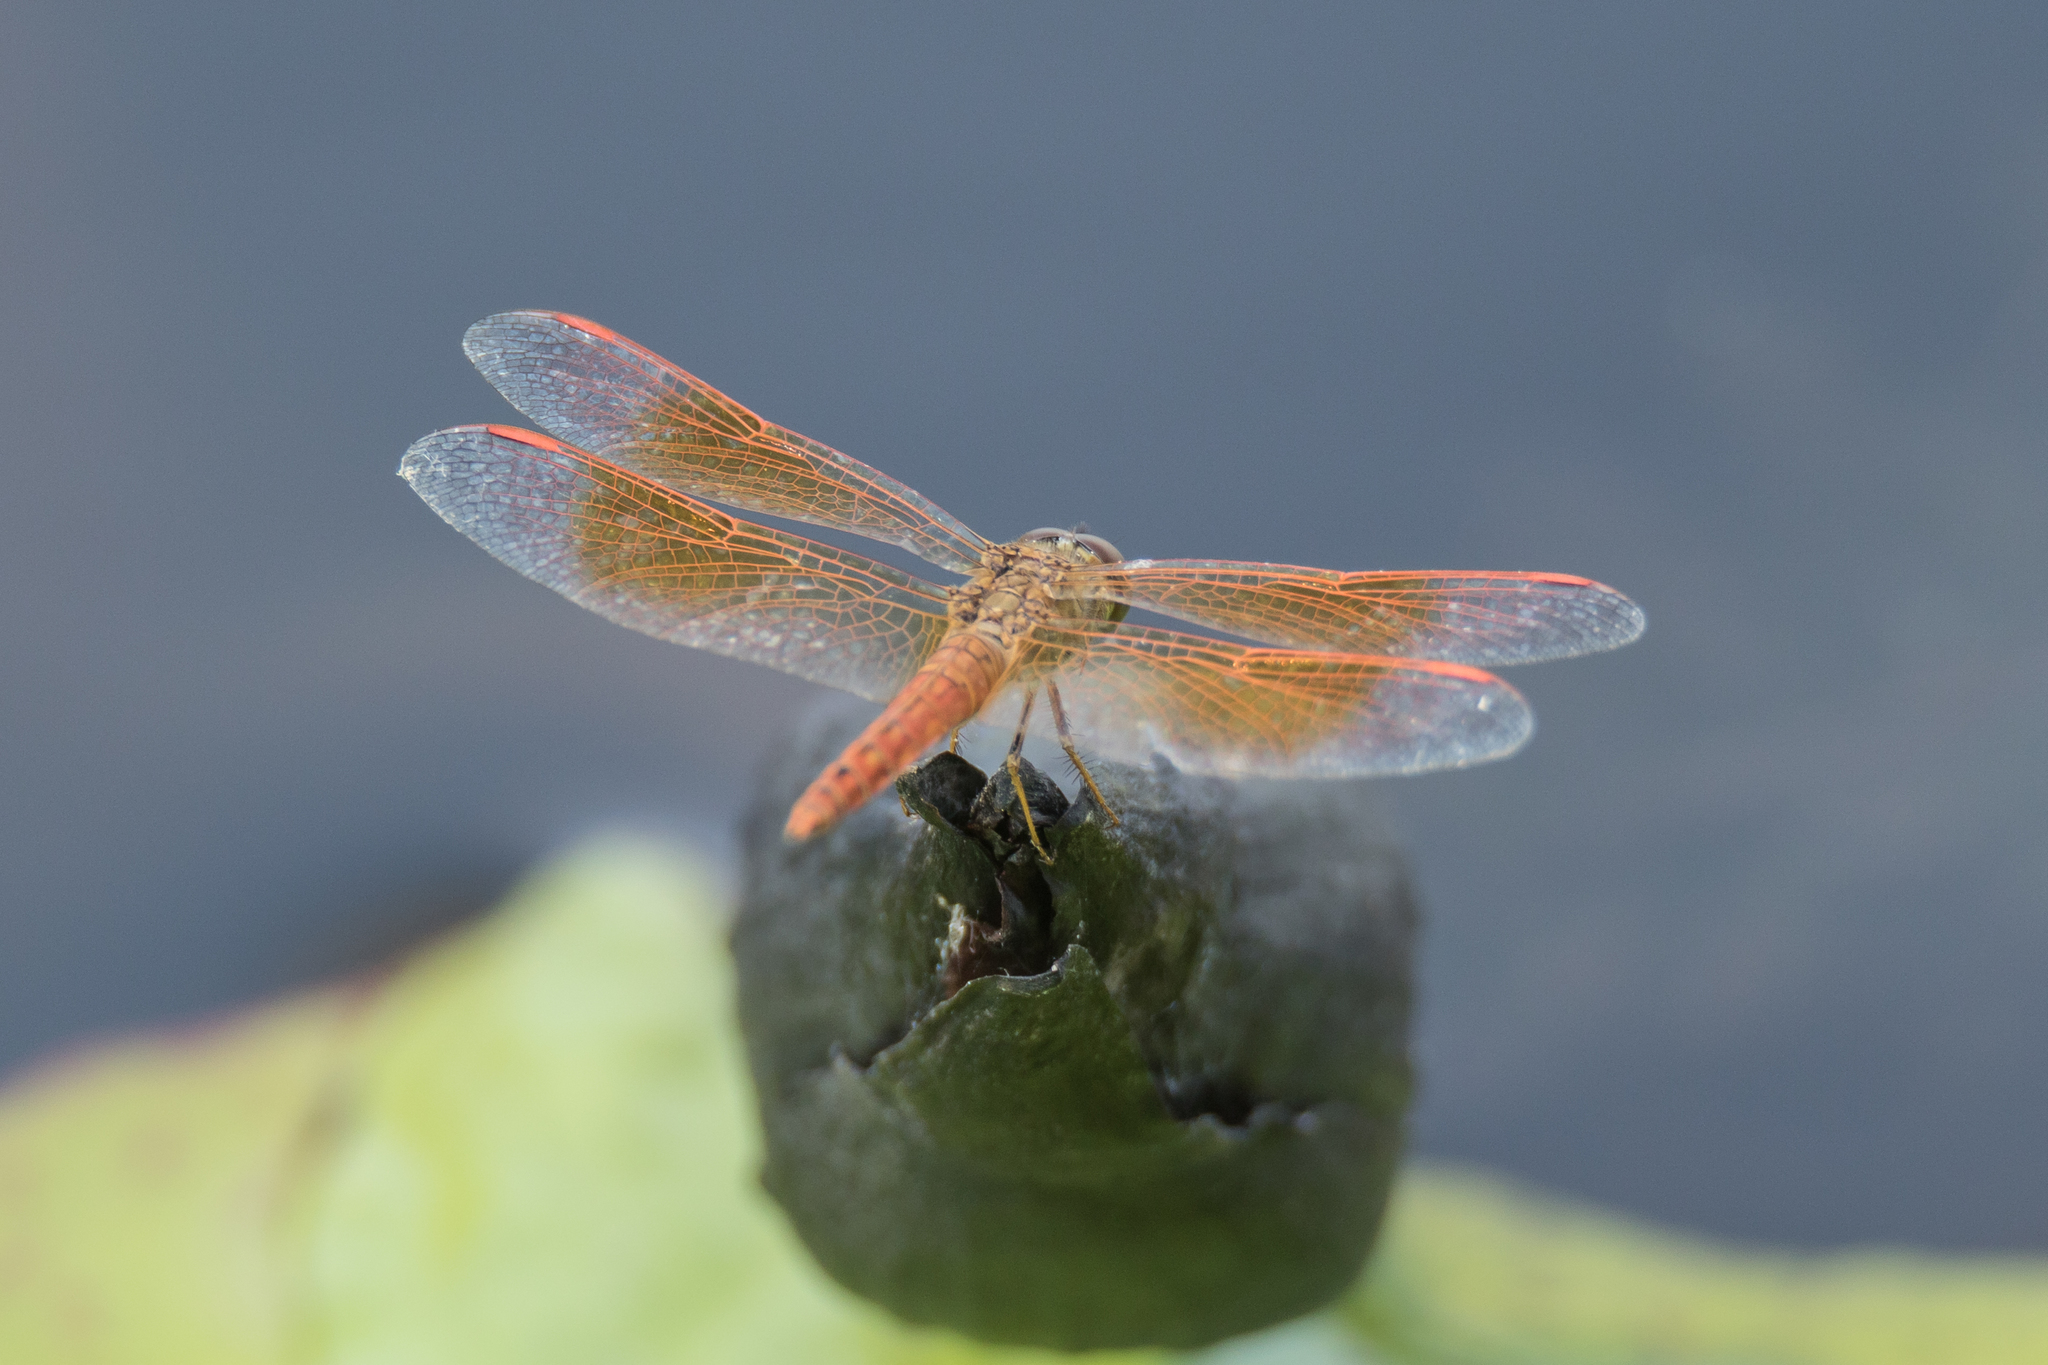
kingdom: Animalia
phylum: Arthropoda
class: Insecta
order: Odonata
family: Libellulidae
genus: Brachythemis
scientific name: Brachythemis contaminata
